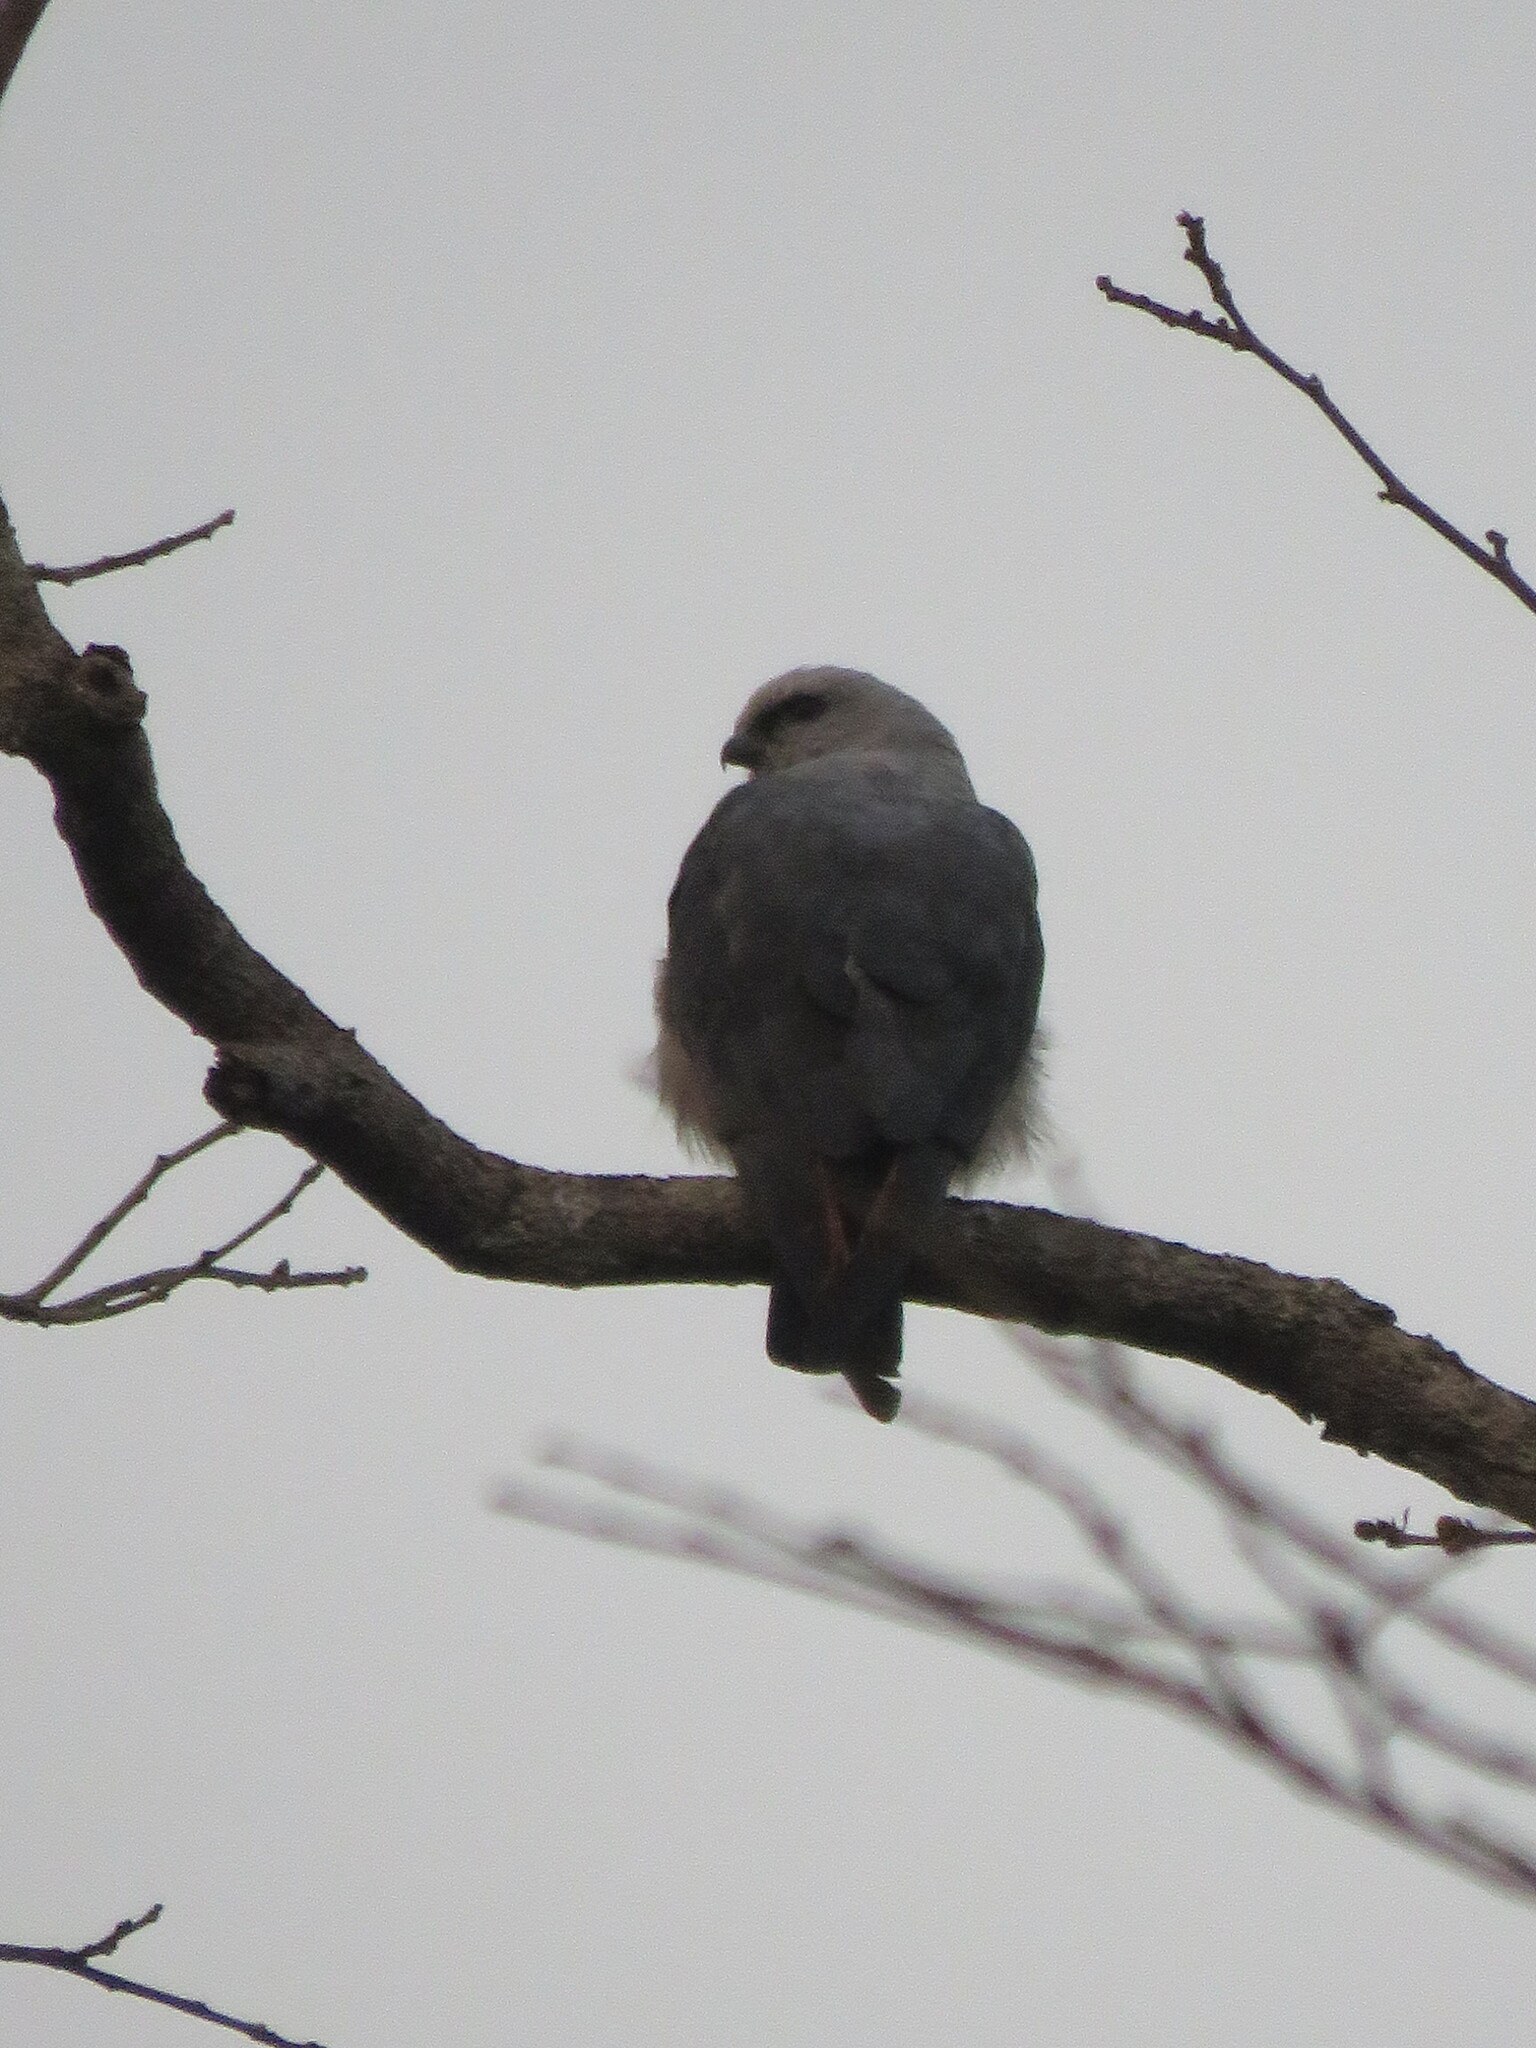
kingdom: Animalia
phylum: Chordata
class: Aves
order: Accipitriformes
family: Accipitridae
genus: Ictinia
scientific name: Ictinia plumbea
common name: Plumbeous kite
